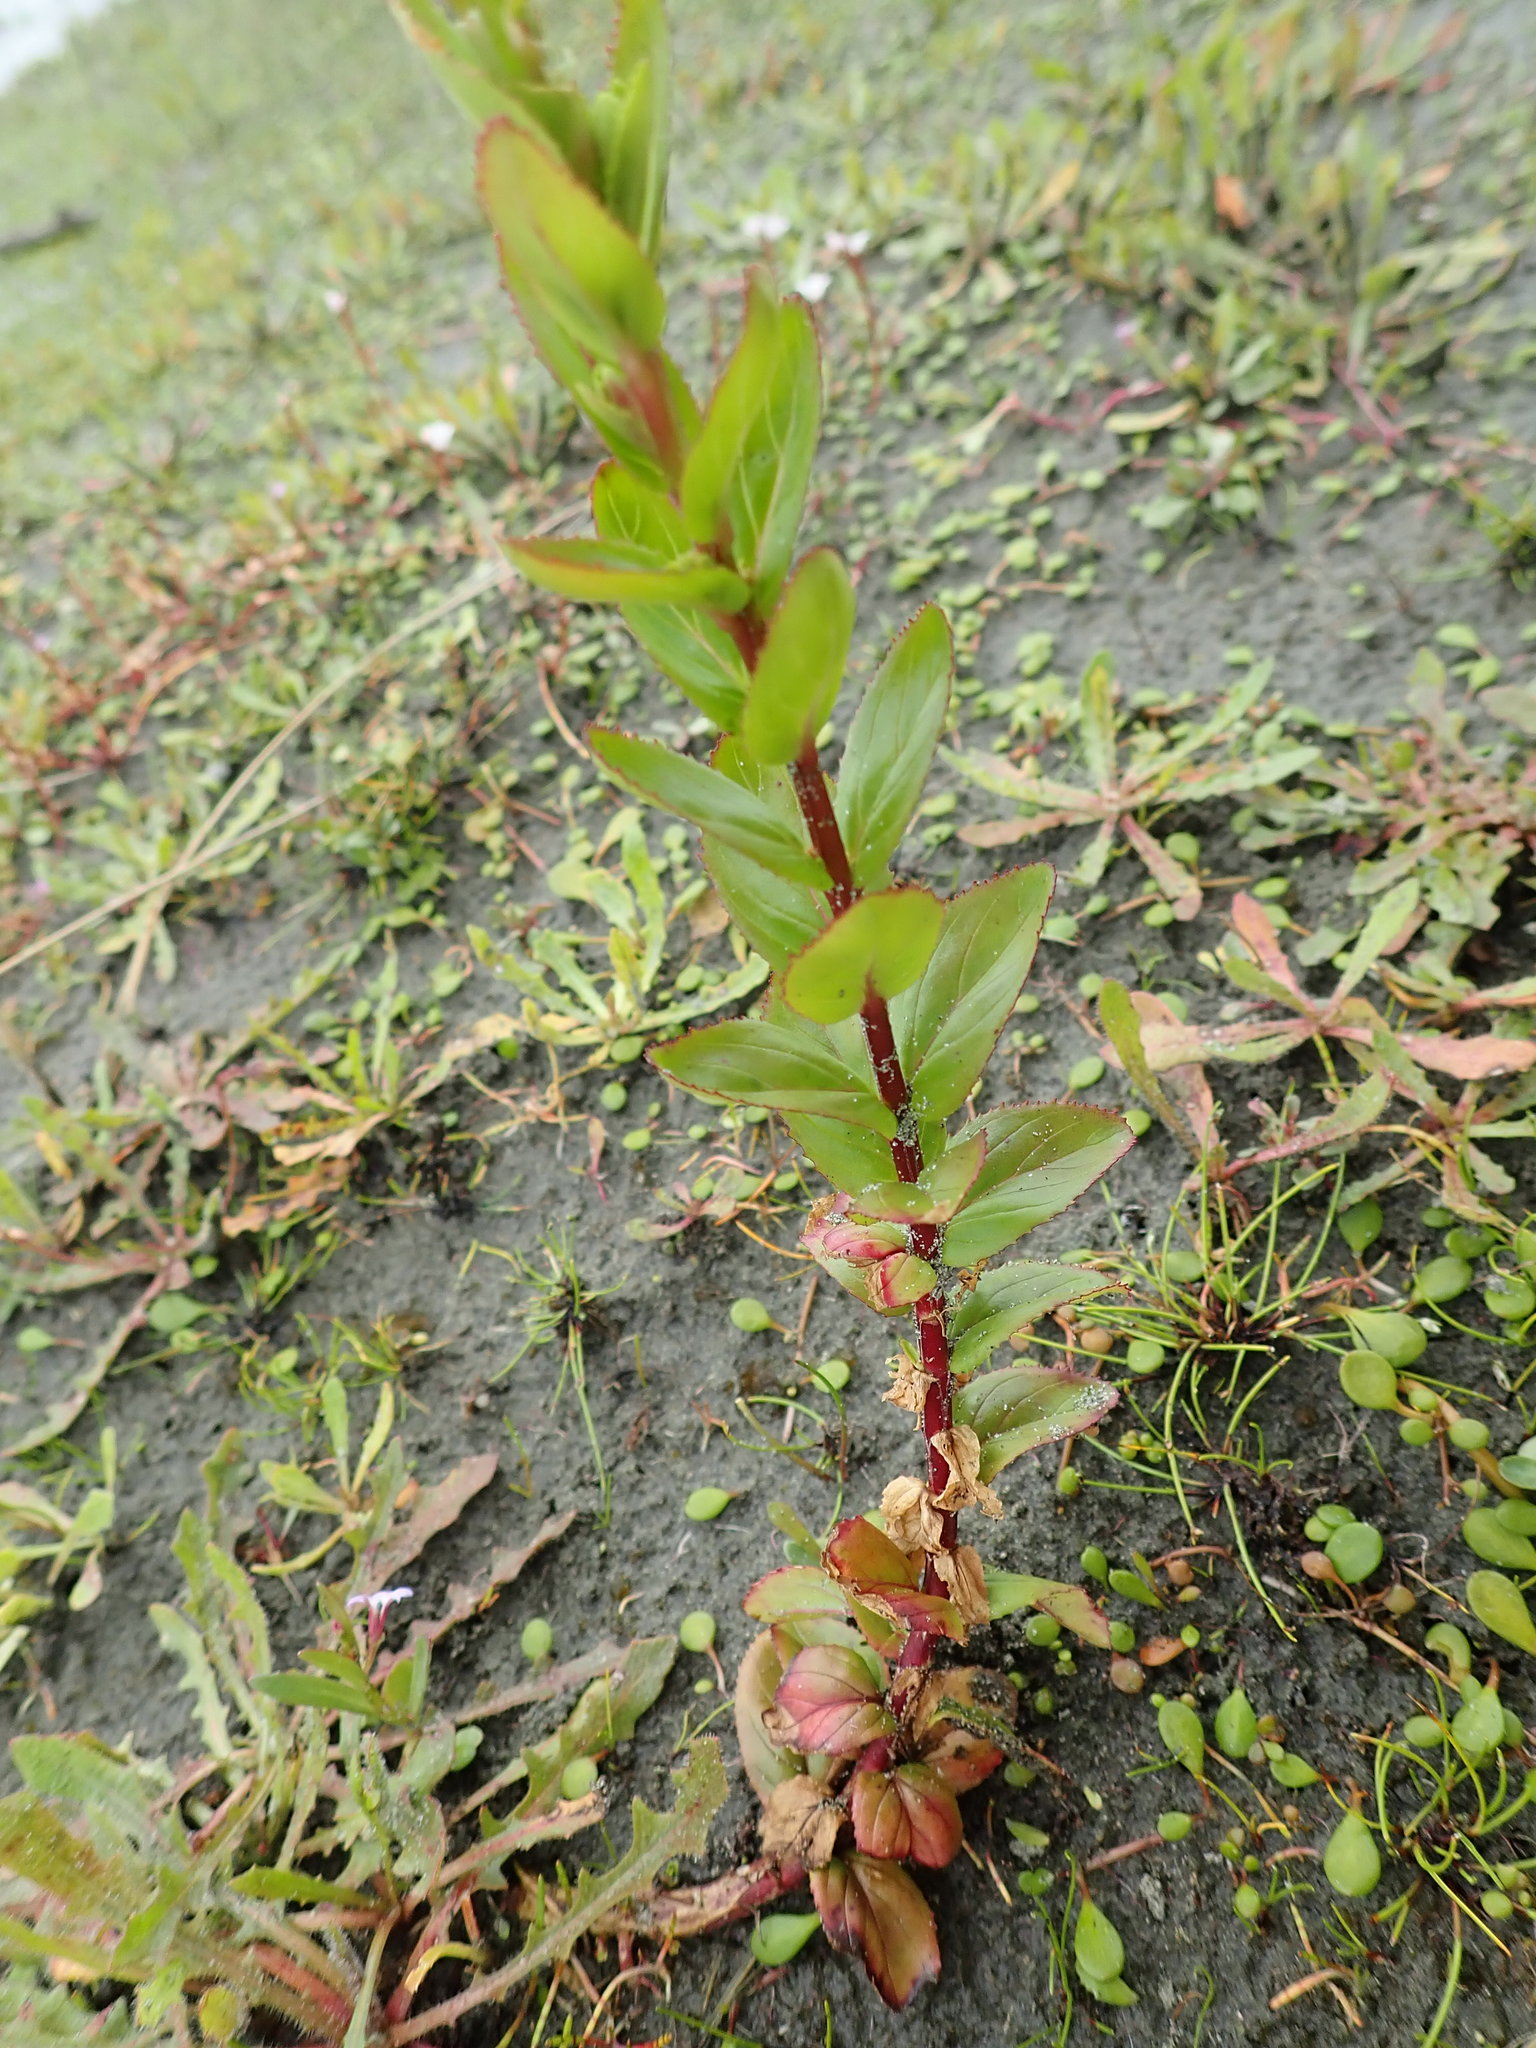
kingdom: Plantae
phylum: Tracheophyta
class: Magnoliopsida
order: Myrtales
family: Onagraceae
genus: Epilobium
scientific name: Epilobium billardiereanum
